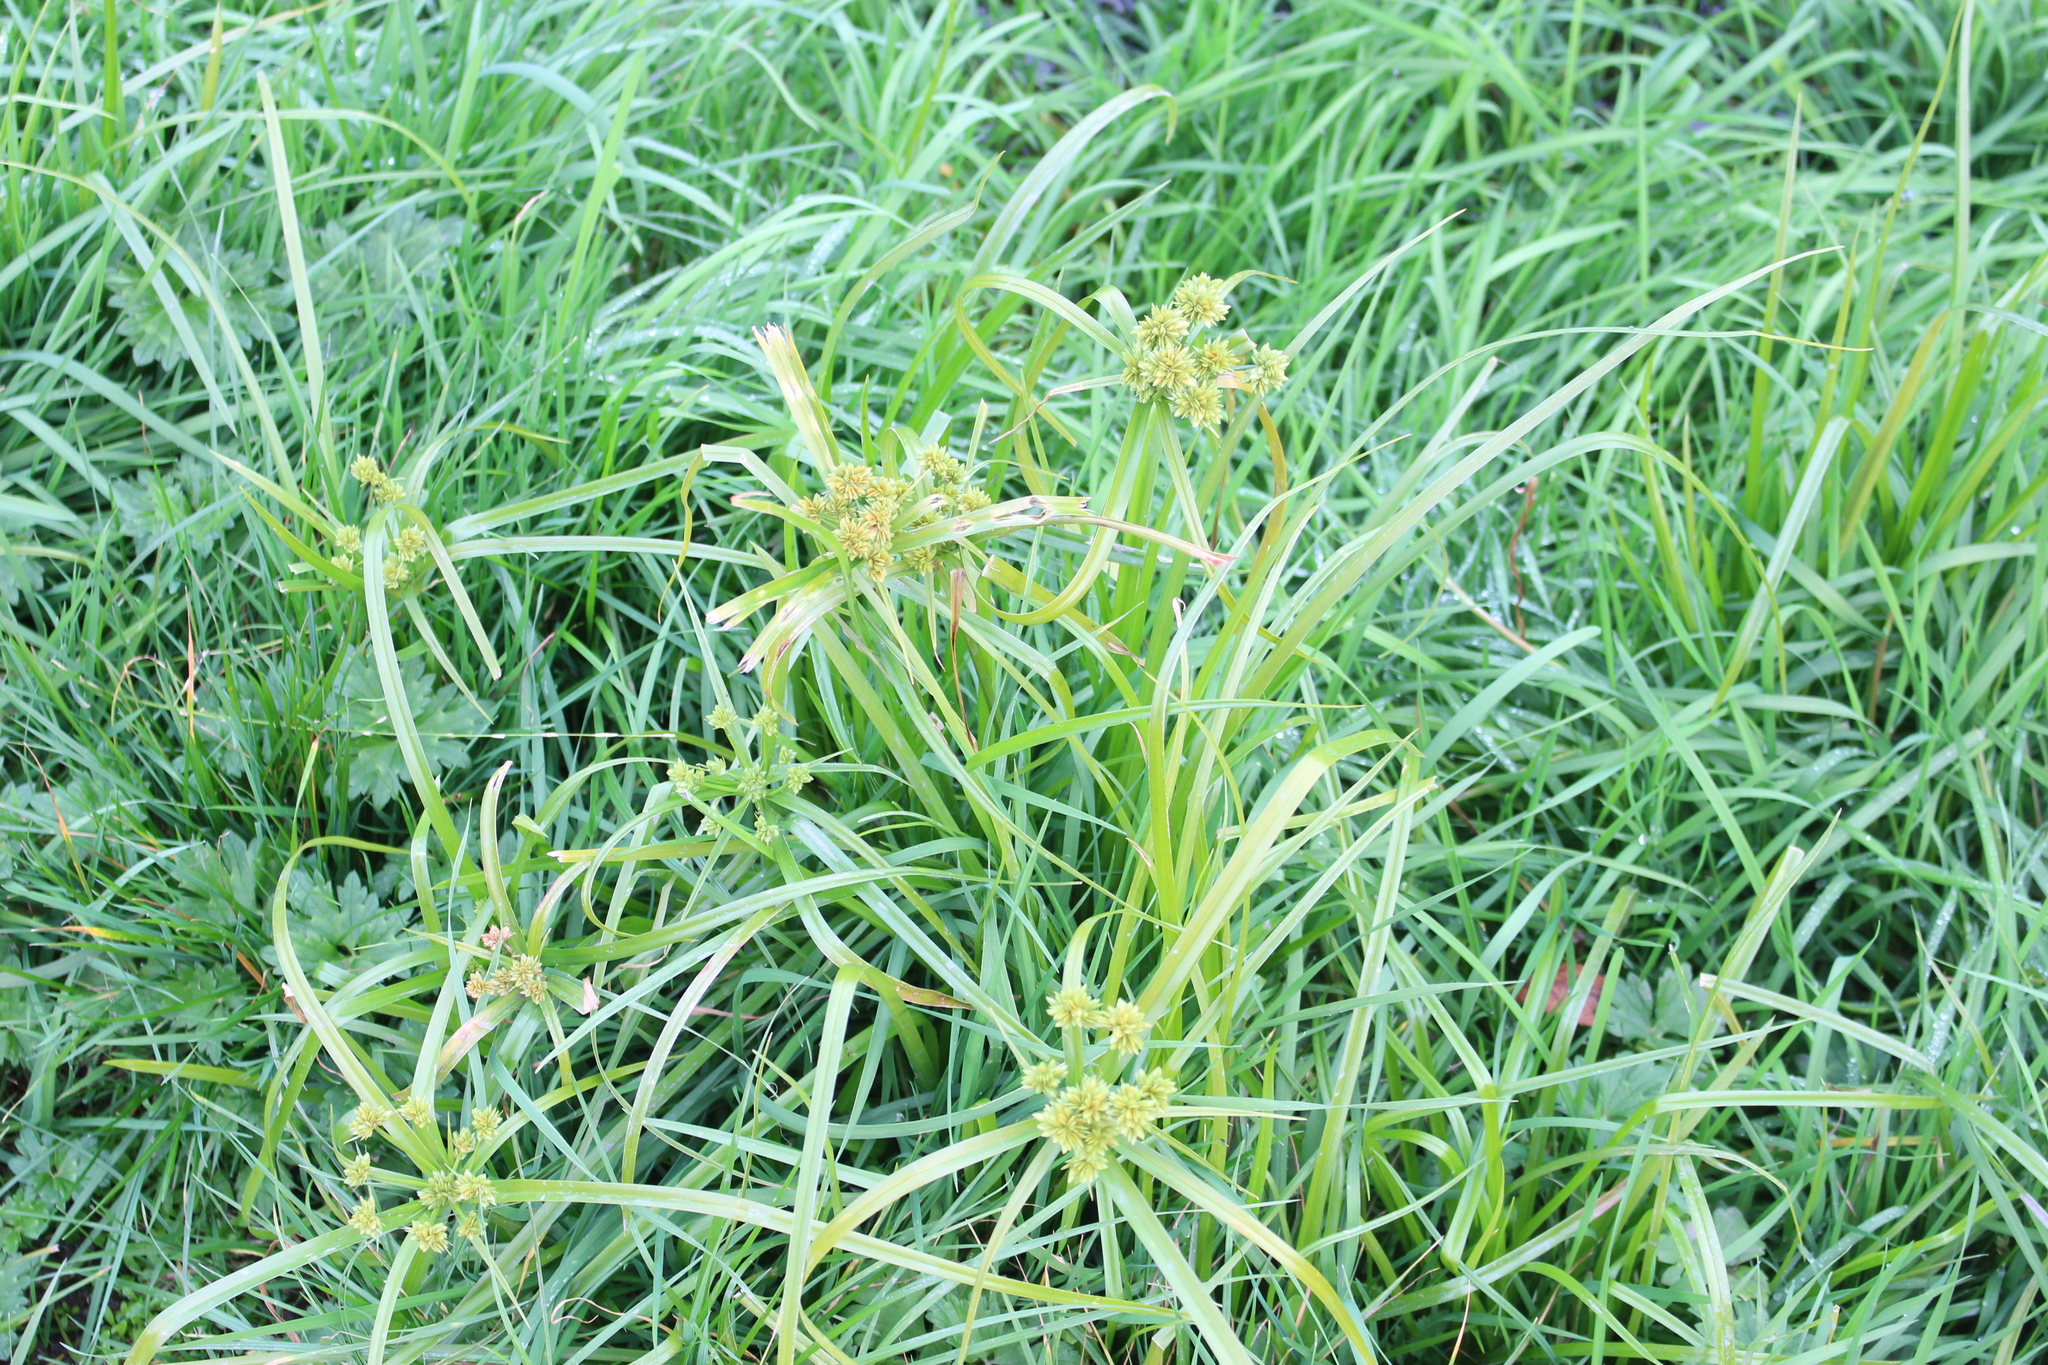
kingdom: Plantae
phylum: Tracheophyta
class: Liliopsida
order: Poales
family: Cyperaceae
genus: Cyperus
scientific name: Cyperus eragrostis
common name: Tall flatsedge
